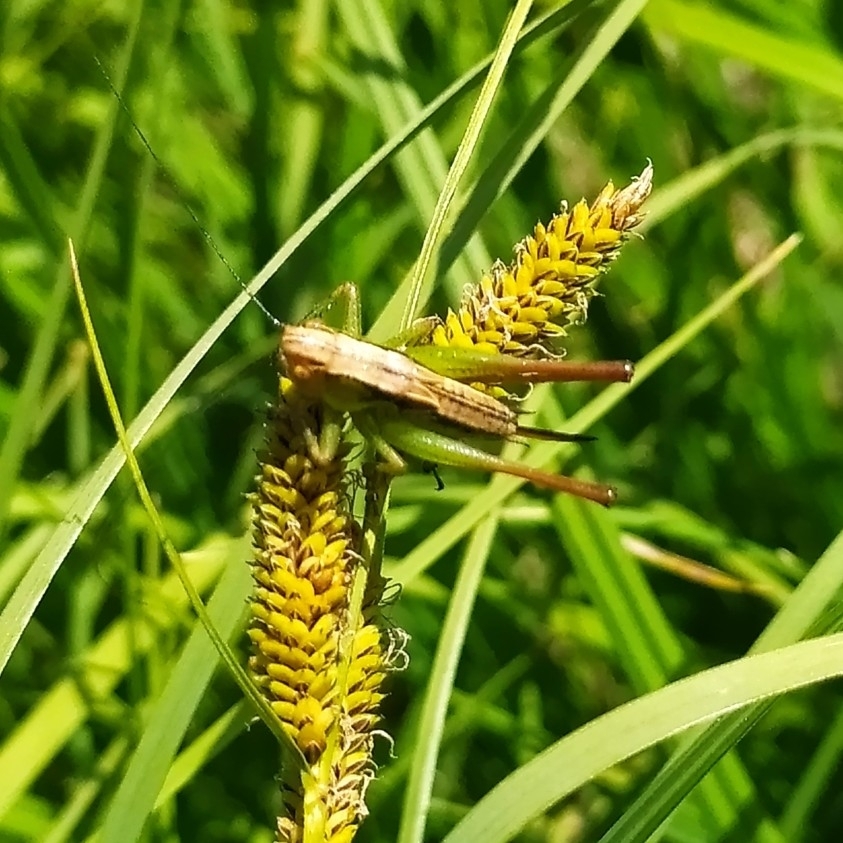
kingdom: Animalia
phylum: Arthropoda
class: Insecta
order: Orthoptera
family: Tettigoniidae
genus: Roeseliana
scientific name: Roeseliana roeselii
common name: Roesel's bush cricket
